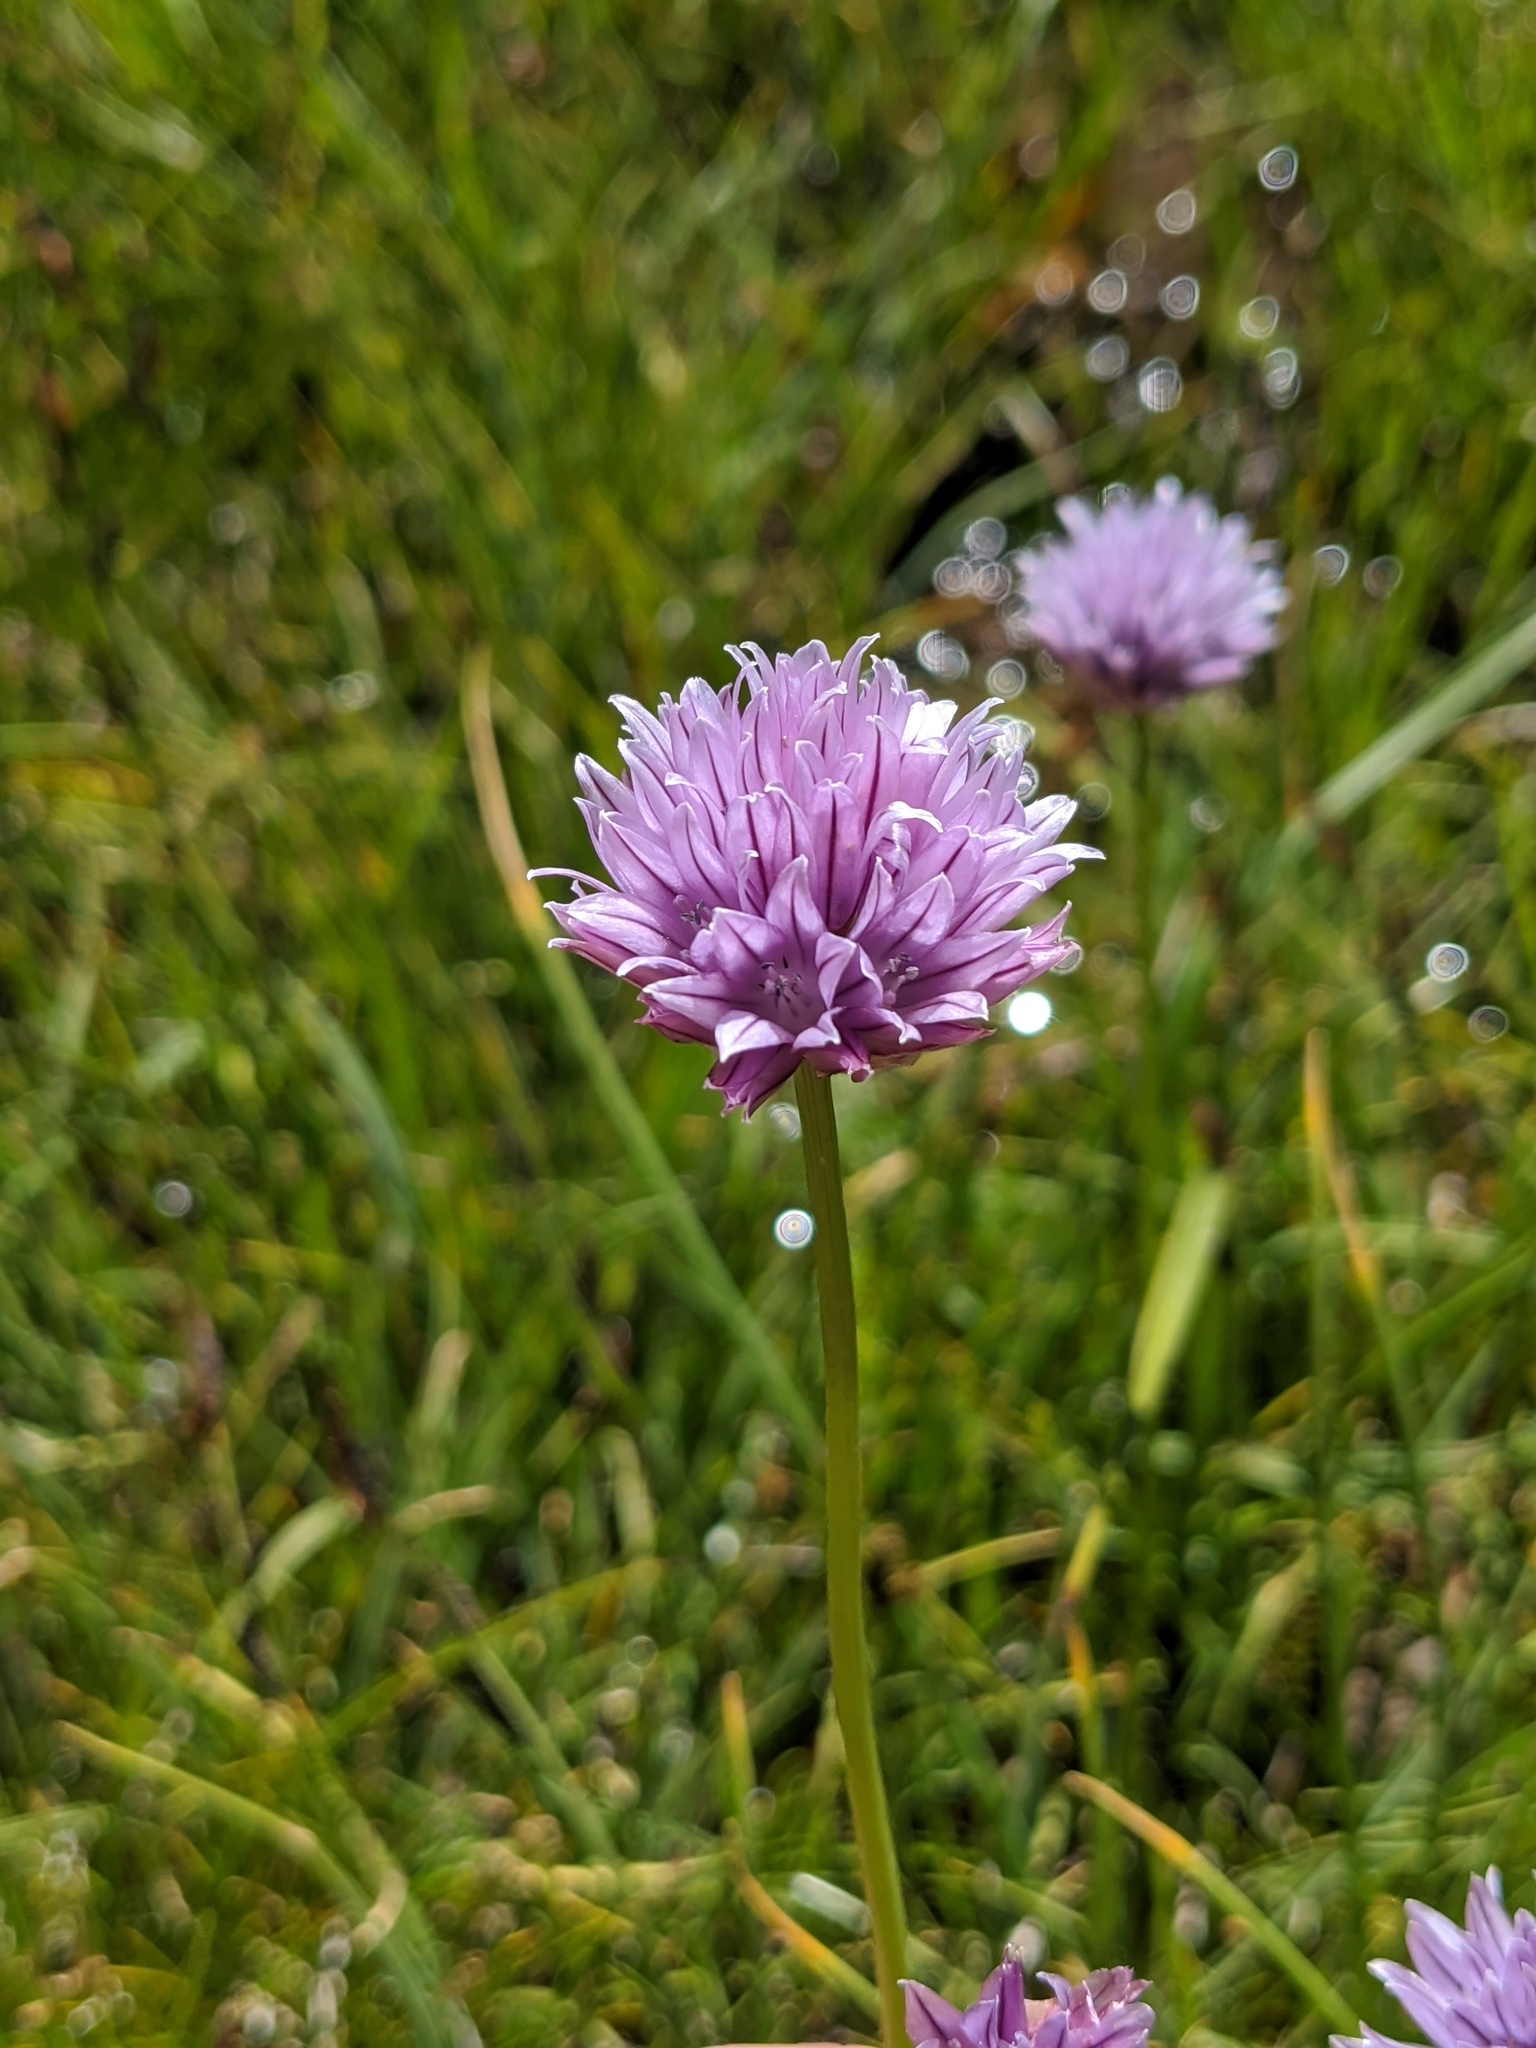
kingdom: Plantae
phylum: Tracheophyta
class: Liliopsida
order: Asparagales
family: Amaryllidaceae
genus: Allium
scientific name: Allium schoenoprasum
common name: Chives
